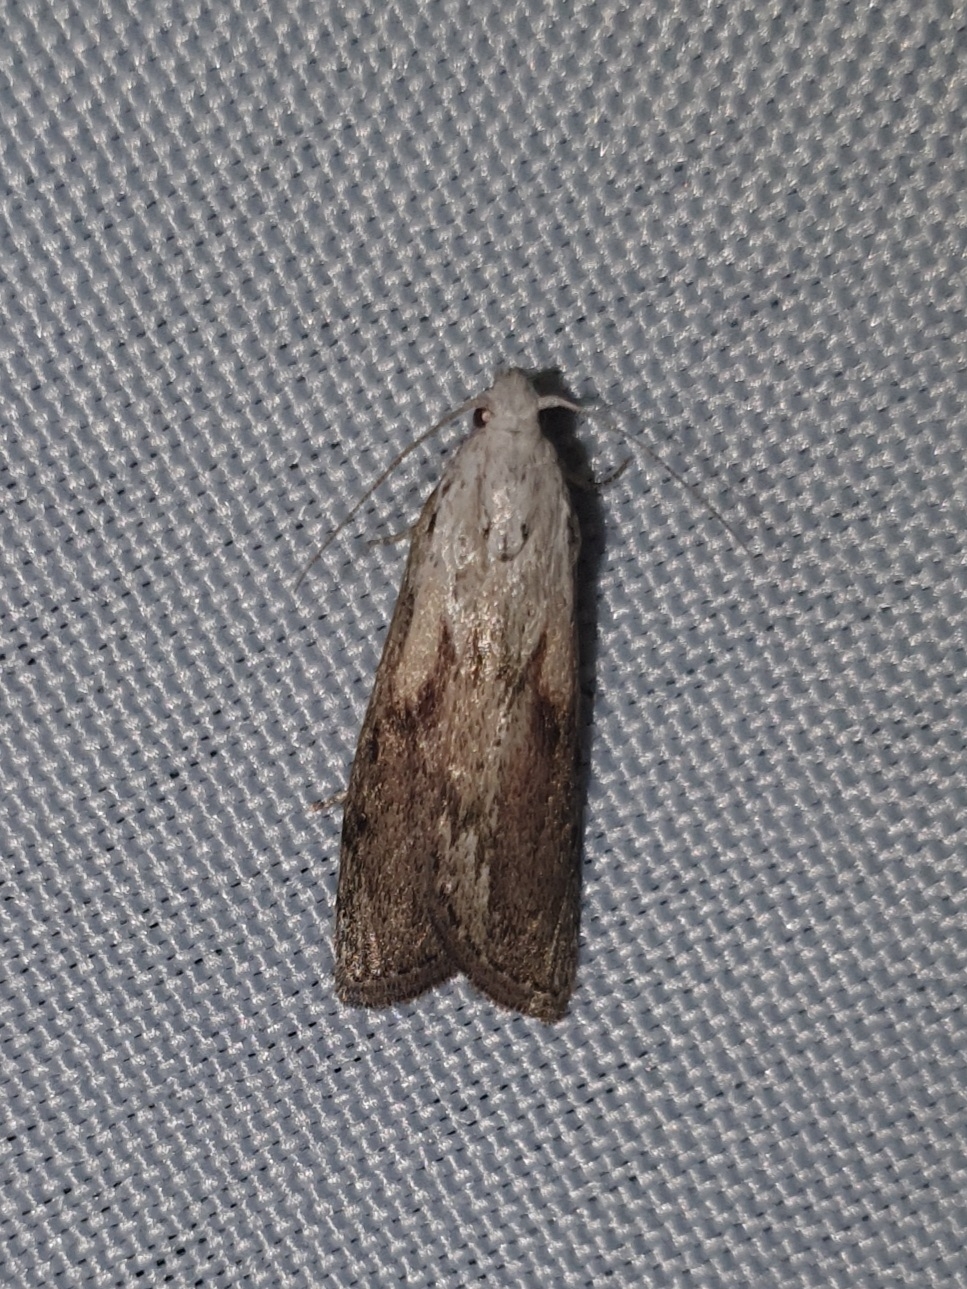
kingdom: Animalia
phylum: Arthropoda
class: Insecta
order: Lepidoptera
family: Pyralidae
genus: Aphomia
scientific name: Aphomia sociella
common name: Bee moth
